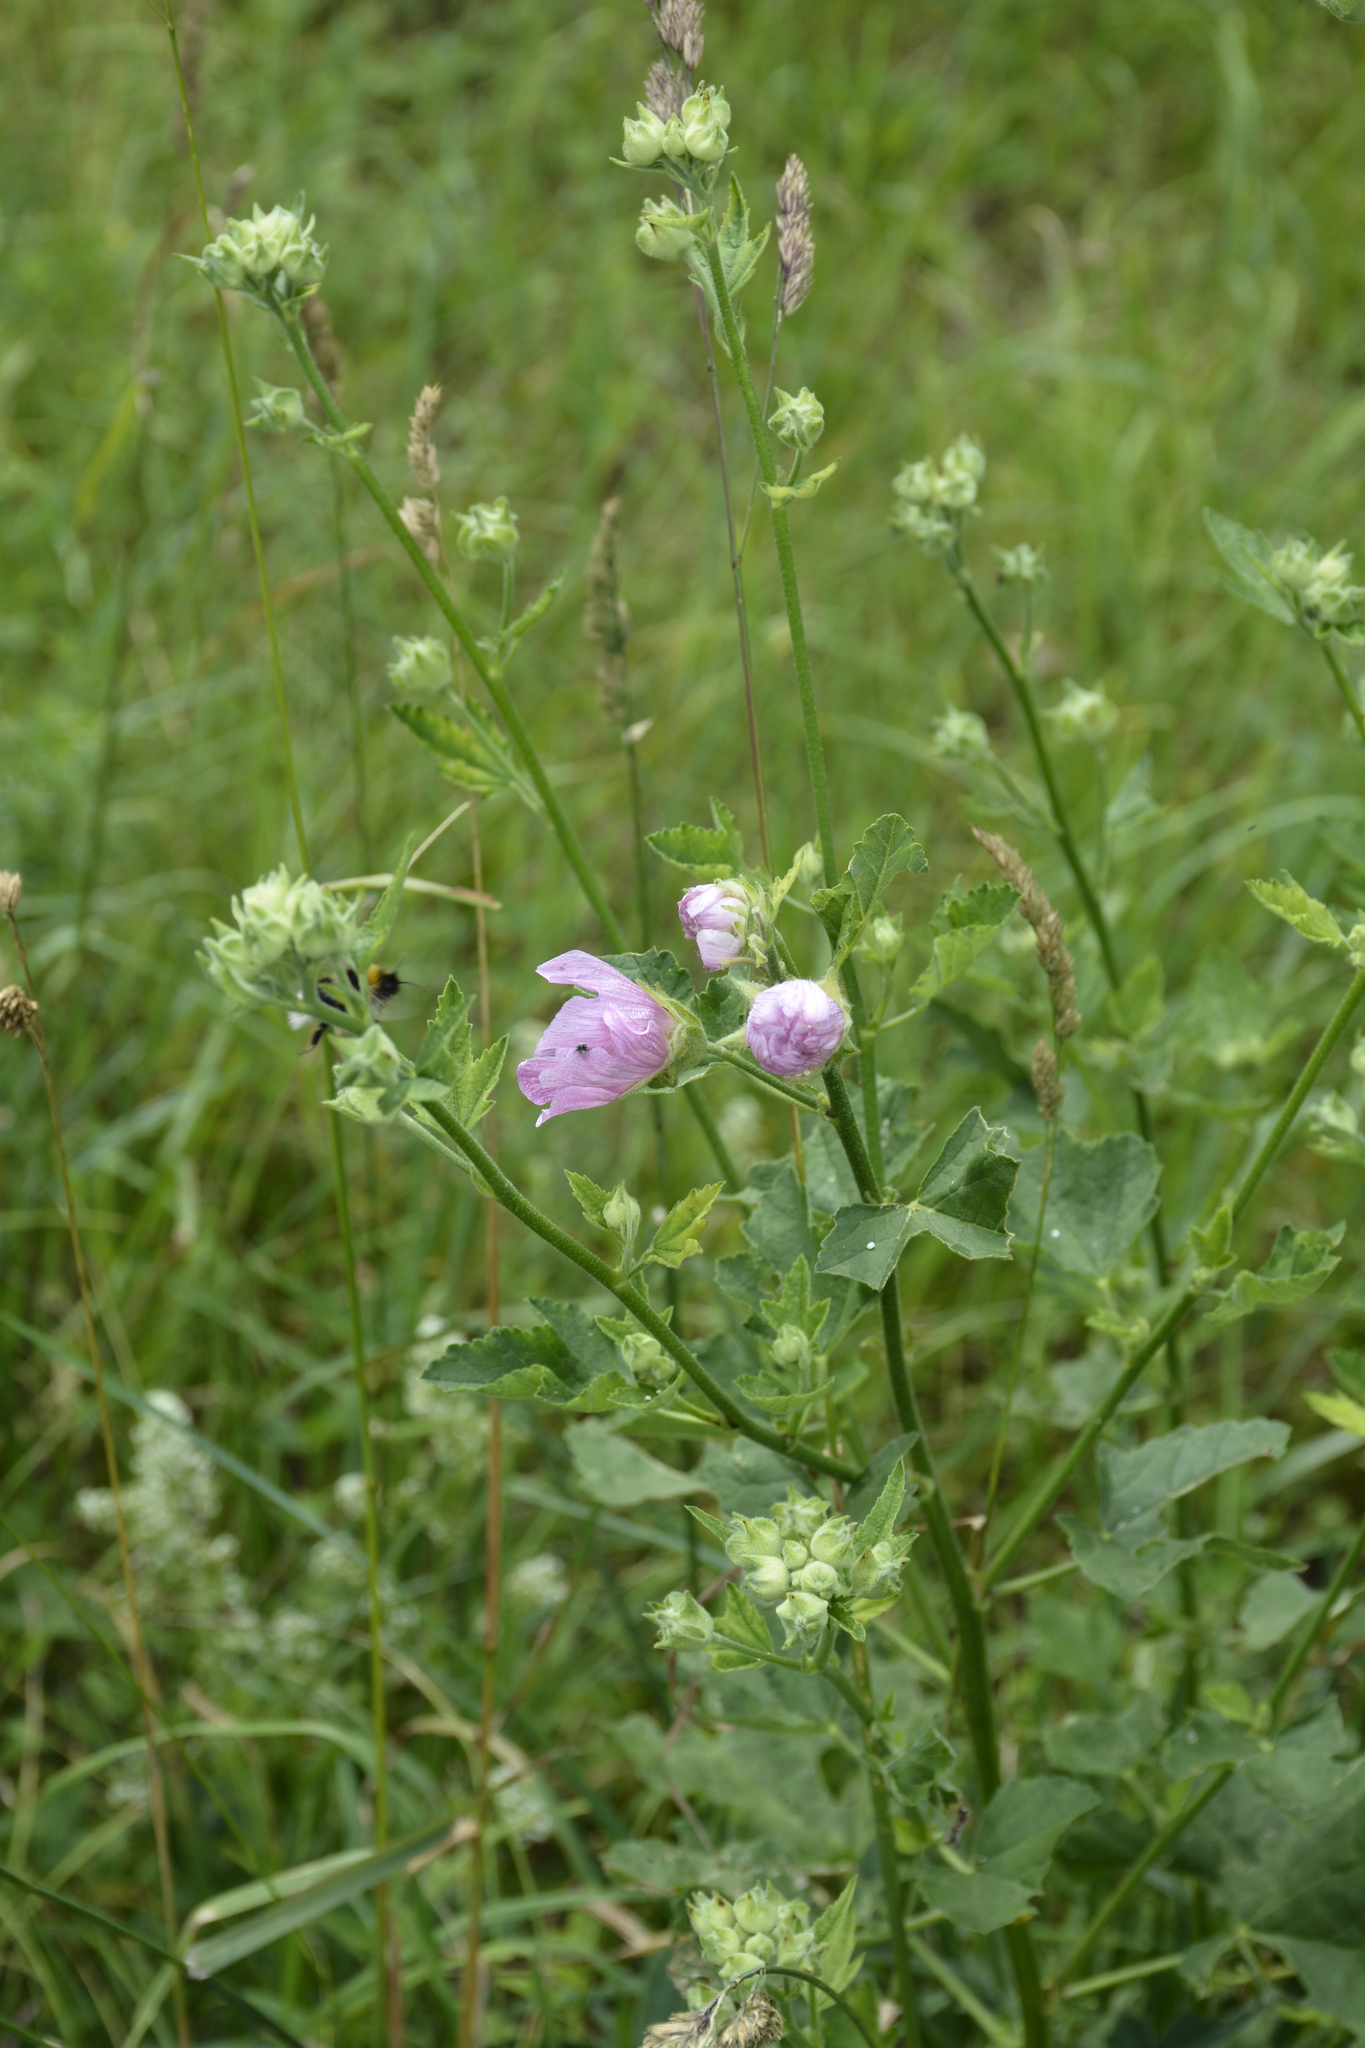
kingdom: Plantae
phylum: Tracheophyta
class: Magnoliopsida
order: Malvales
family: Malvaceae
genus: Malva
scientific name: Malva thuringiaca
